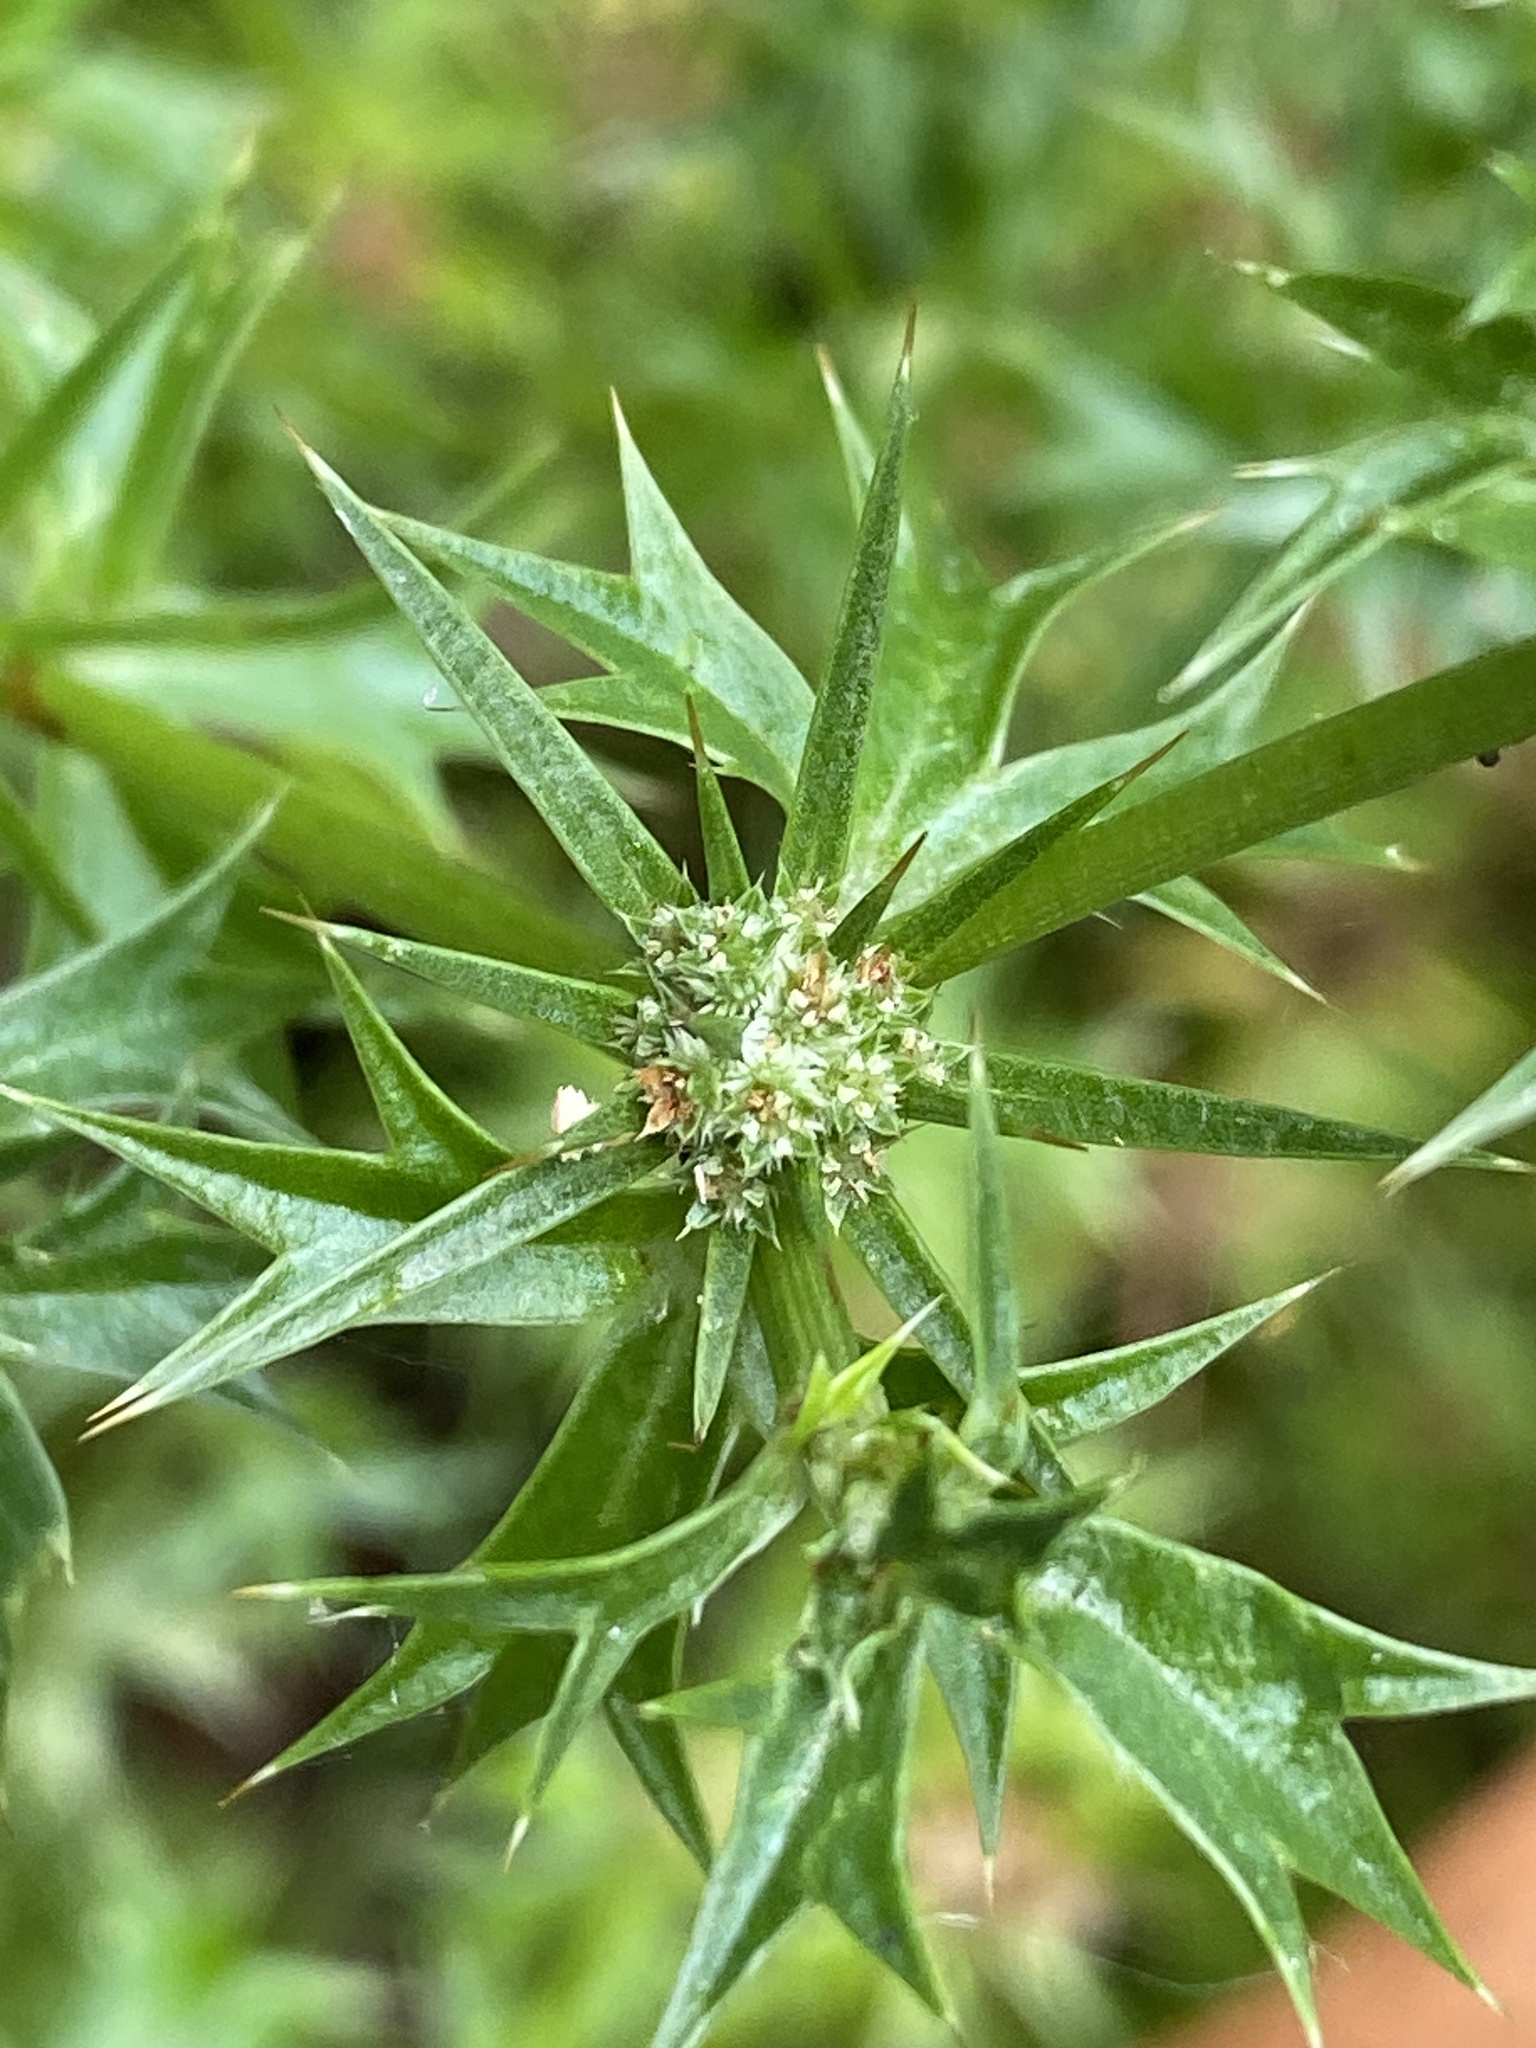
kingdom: Plantae
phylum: Tracheophyta
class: Magnoliopsida
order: Apiales
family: Apiaceae
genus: Eryngium
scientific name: Eryngium expansum
